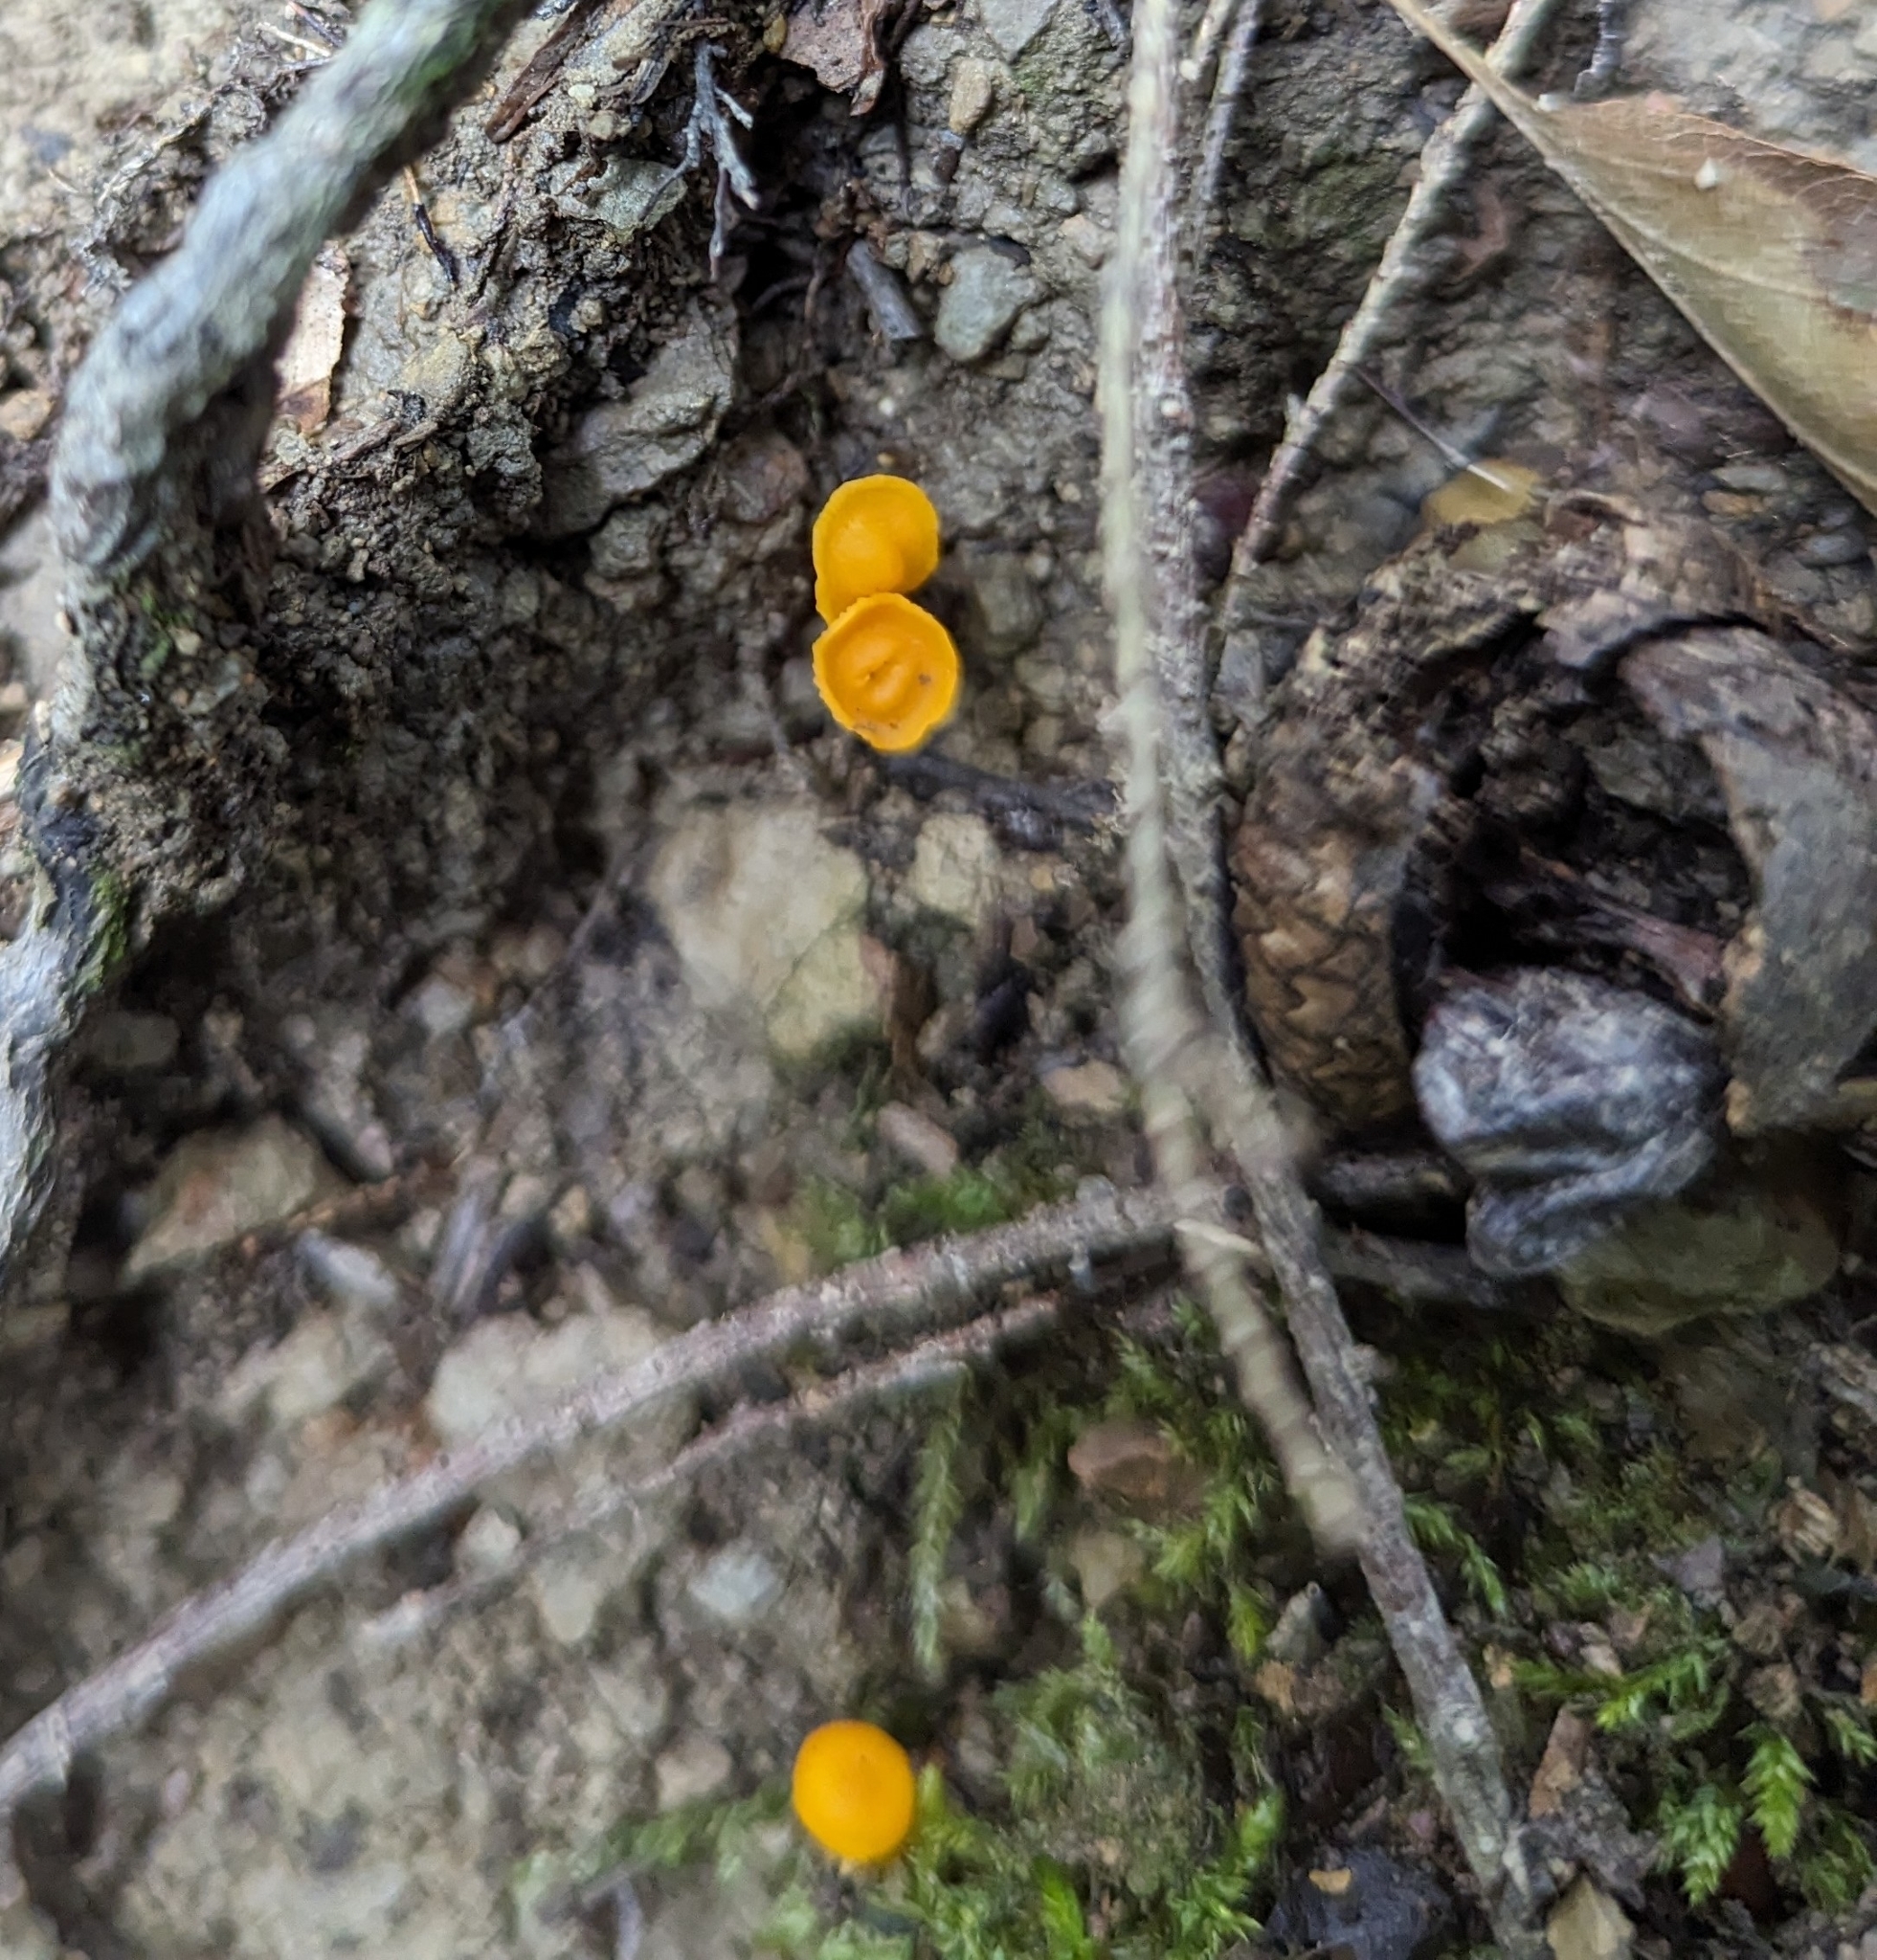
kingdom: Fungi
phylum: Basidiomycota
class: Agaricomycetes
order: Cantharellales
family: Hydnaceae
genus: Cantharellus
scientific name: Cantharellus minor
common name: Small chanterelle
